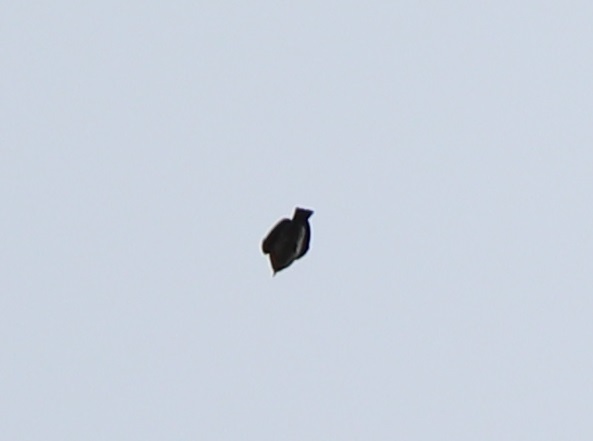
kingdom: Animalia
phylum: Chordata
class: Aves
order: Passeriformes
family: Turdidae
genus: Sialia
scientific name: Sialia sialis
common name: Eastern bluebird
